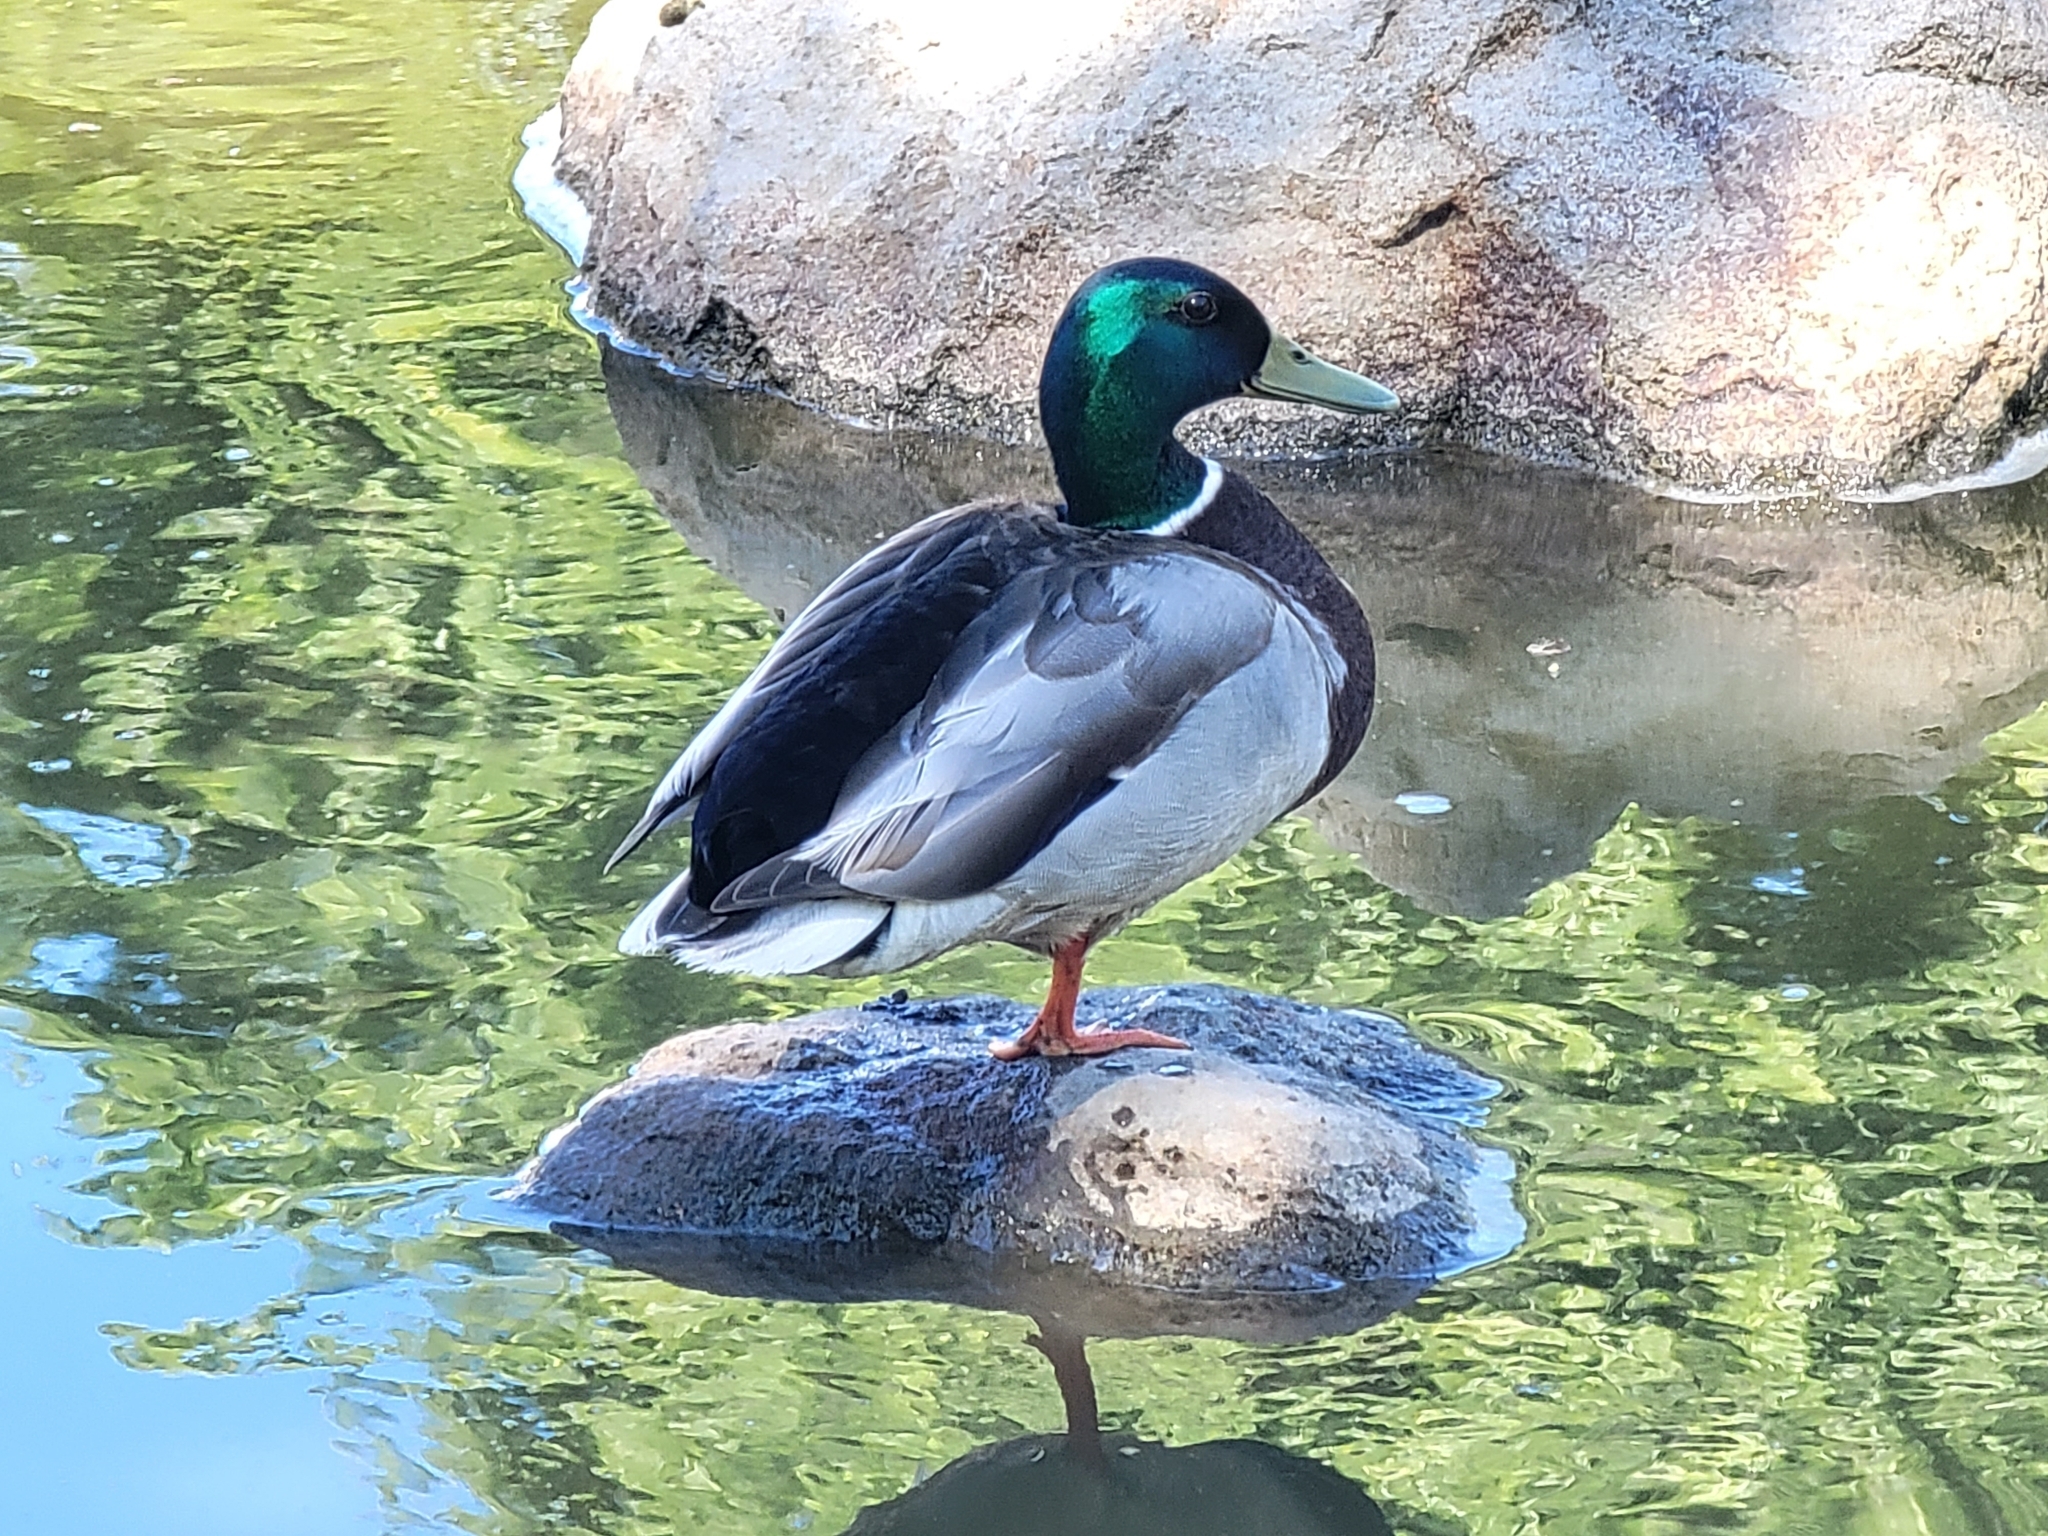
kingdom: Animalia
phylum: Chordata
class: Aves
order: Anseriformes
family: Anatidae
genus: Anas
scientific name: Anas platyrhynchos
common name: Mallard
